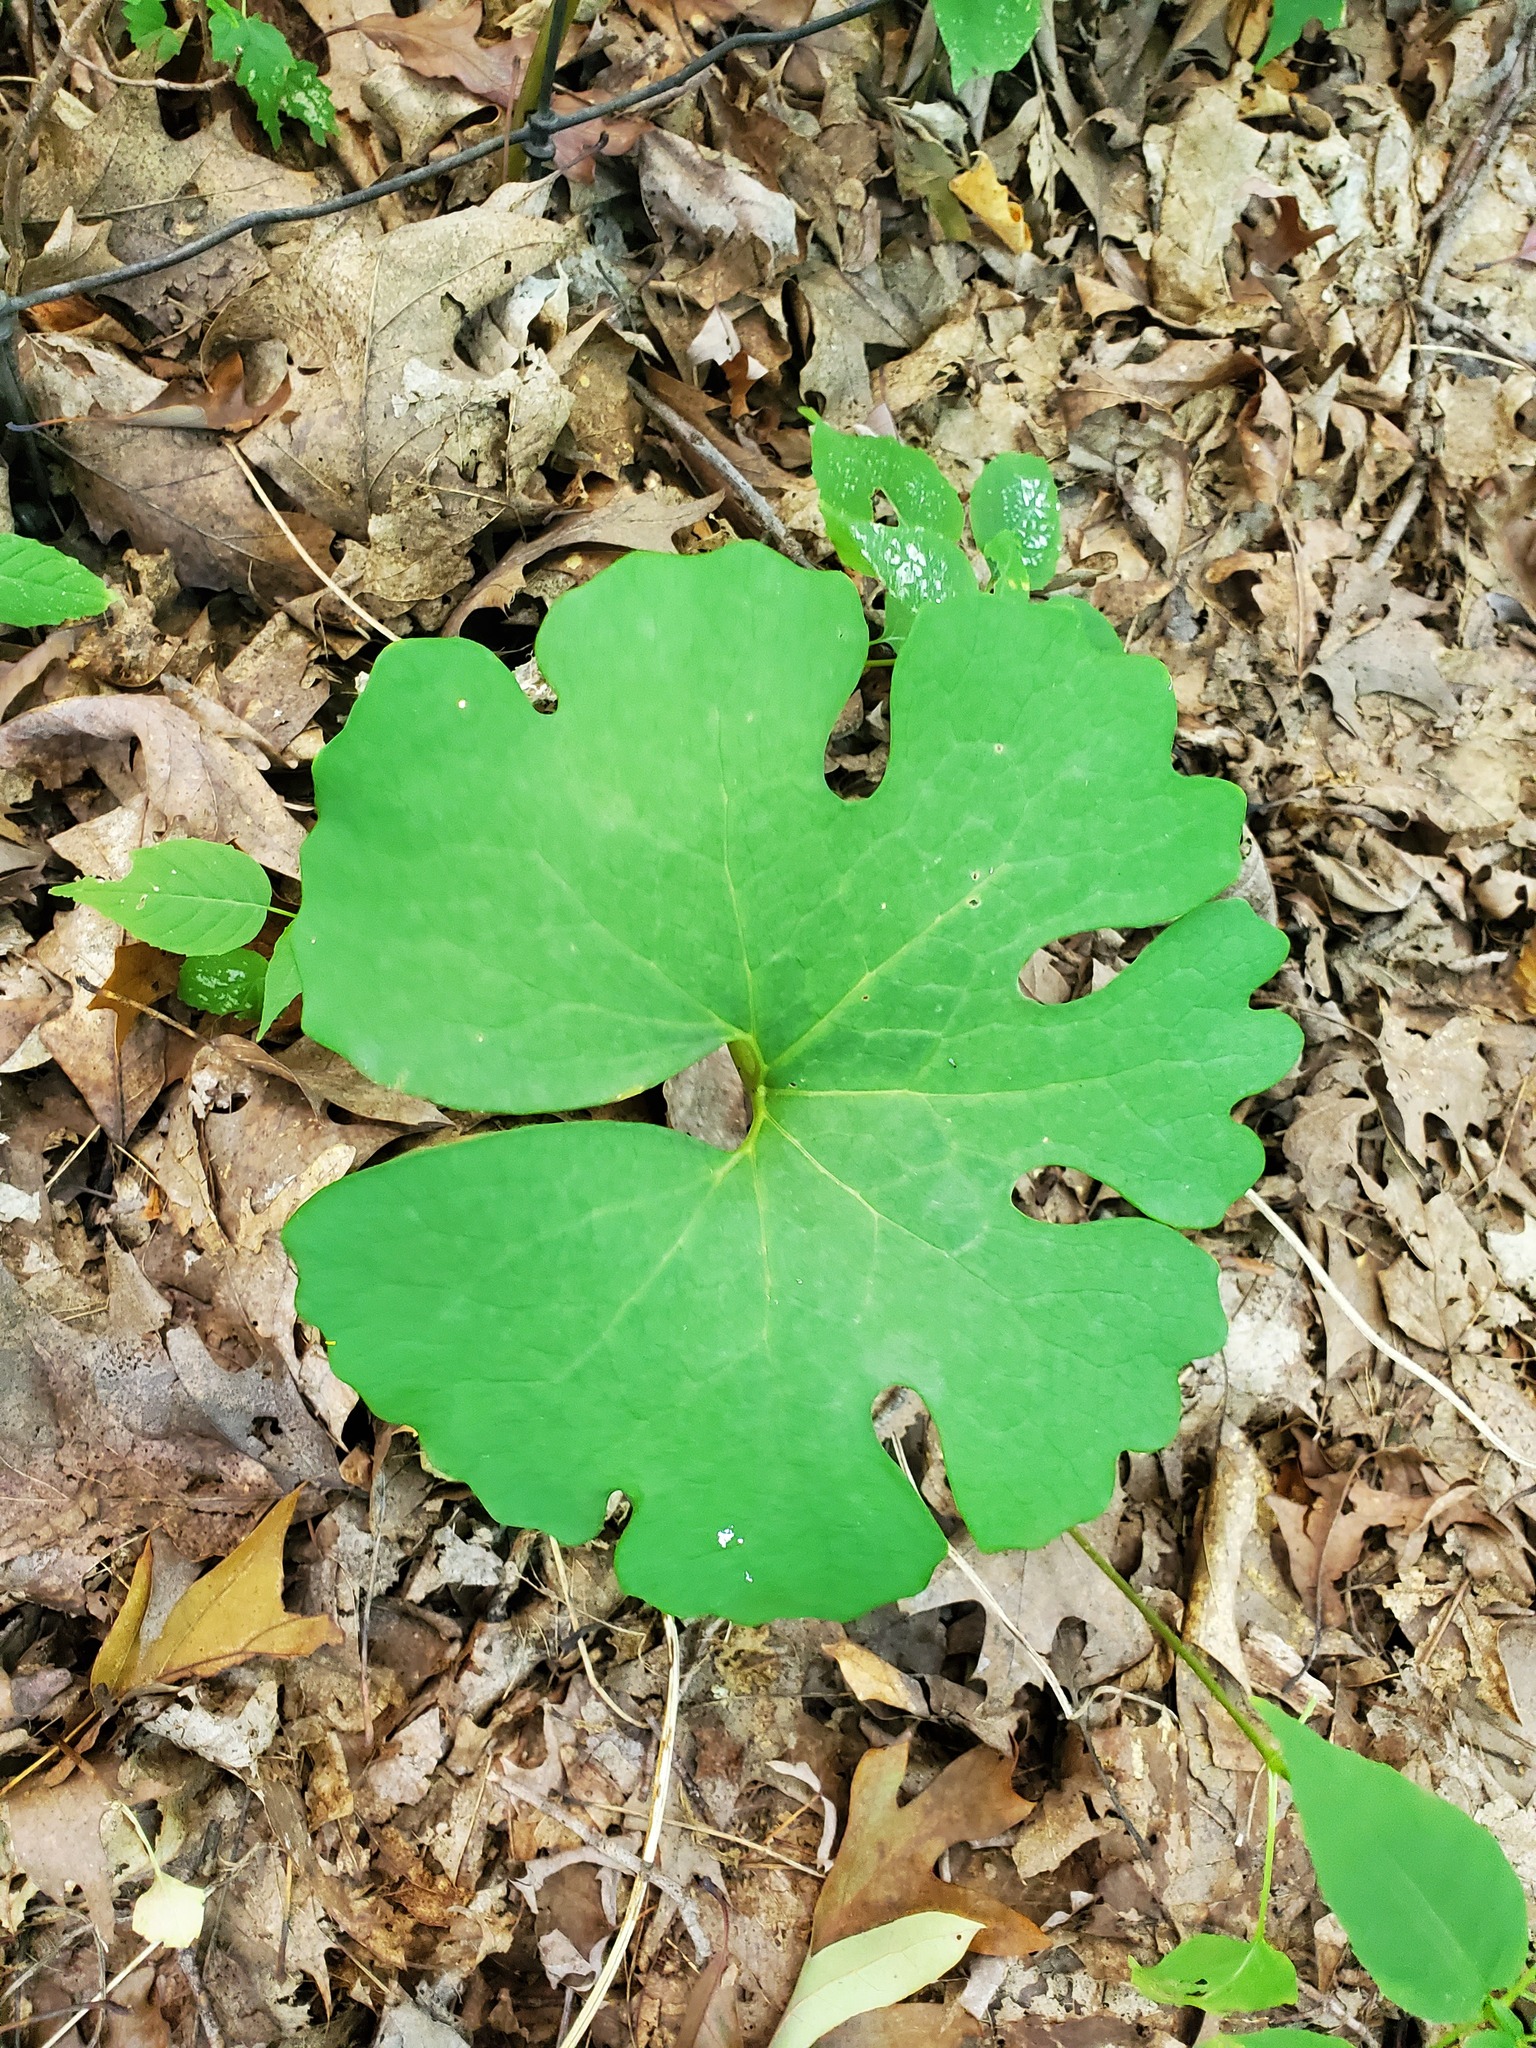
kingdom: Plantae
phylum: Tracheophyta
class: Magnoliopsida
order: Ranunculales
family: Papaveraceae
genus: Sanguinaria
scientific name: Sanguinaria canadensis
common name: Bloodroot
